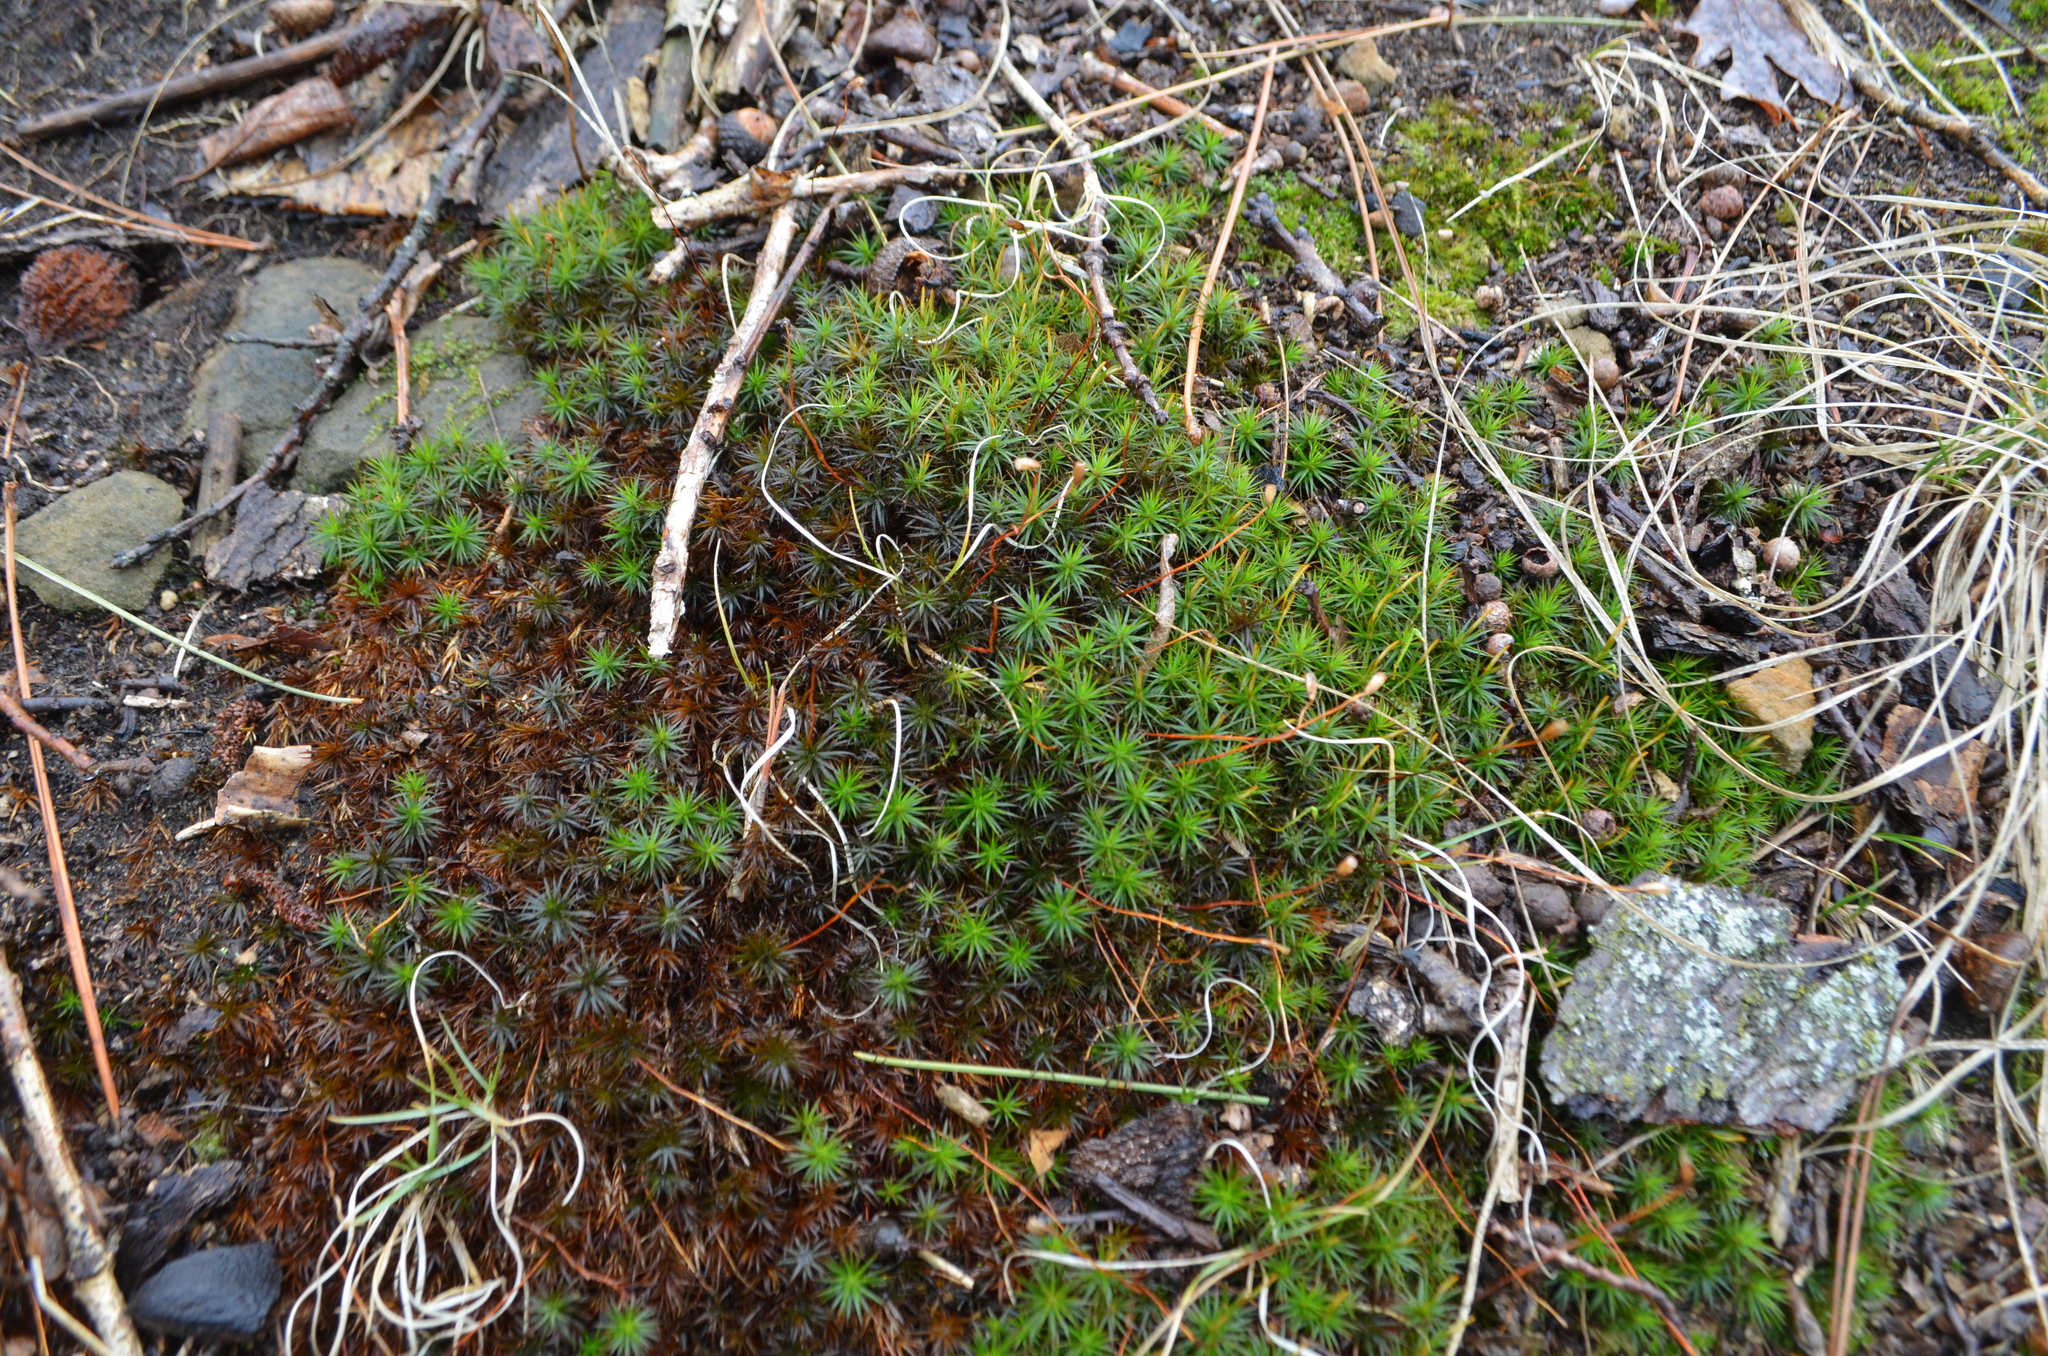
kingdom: Plantae
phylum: Bryophyta
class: Polytrichopsida
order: Polytrichales
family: Polytrichaceae
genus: Polytrichum
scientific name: Polytrichum juniperinum
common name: Juniper haircap moss
